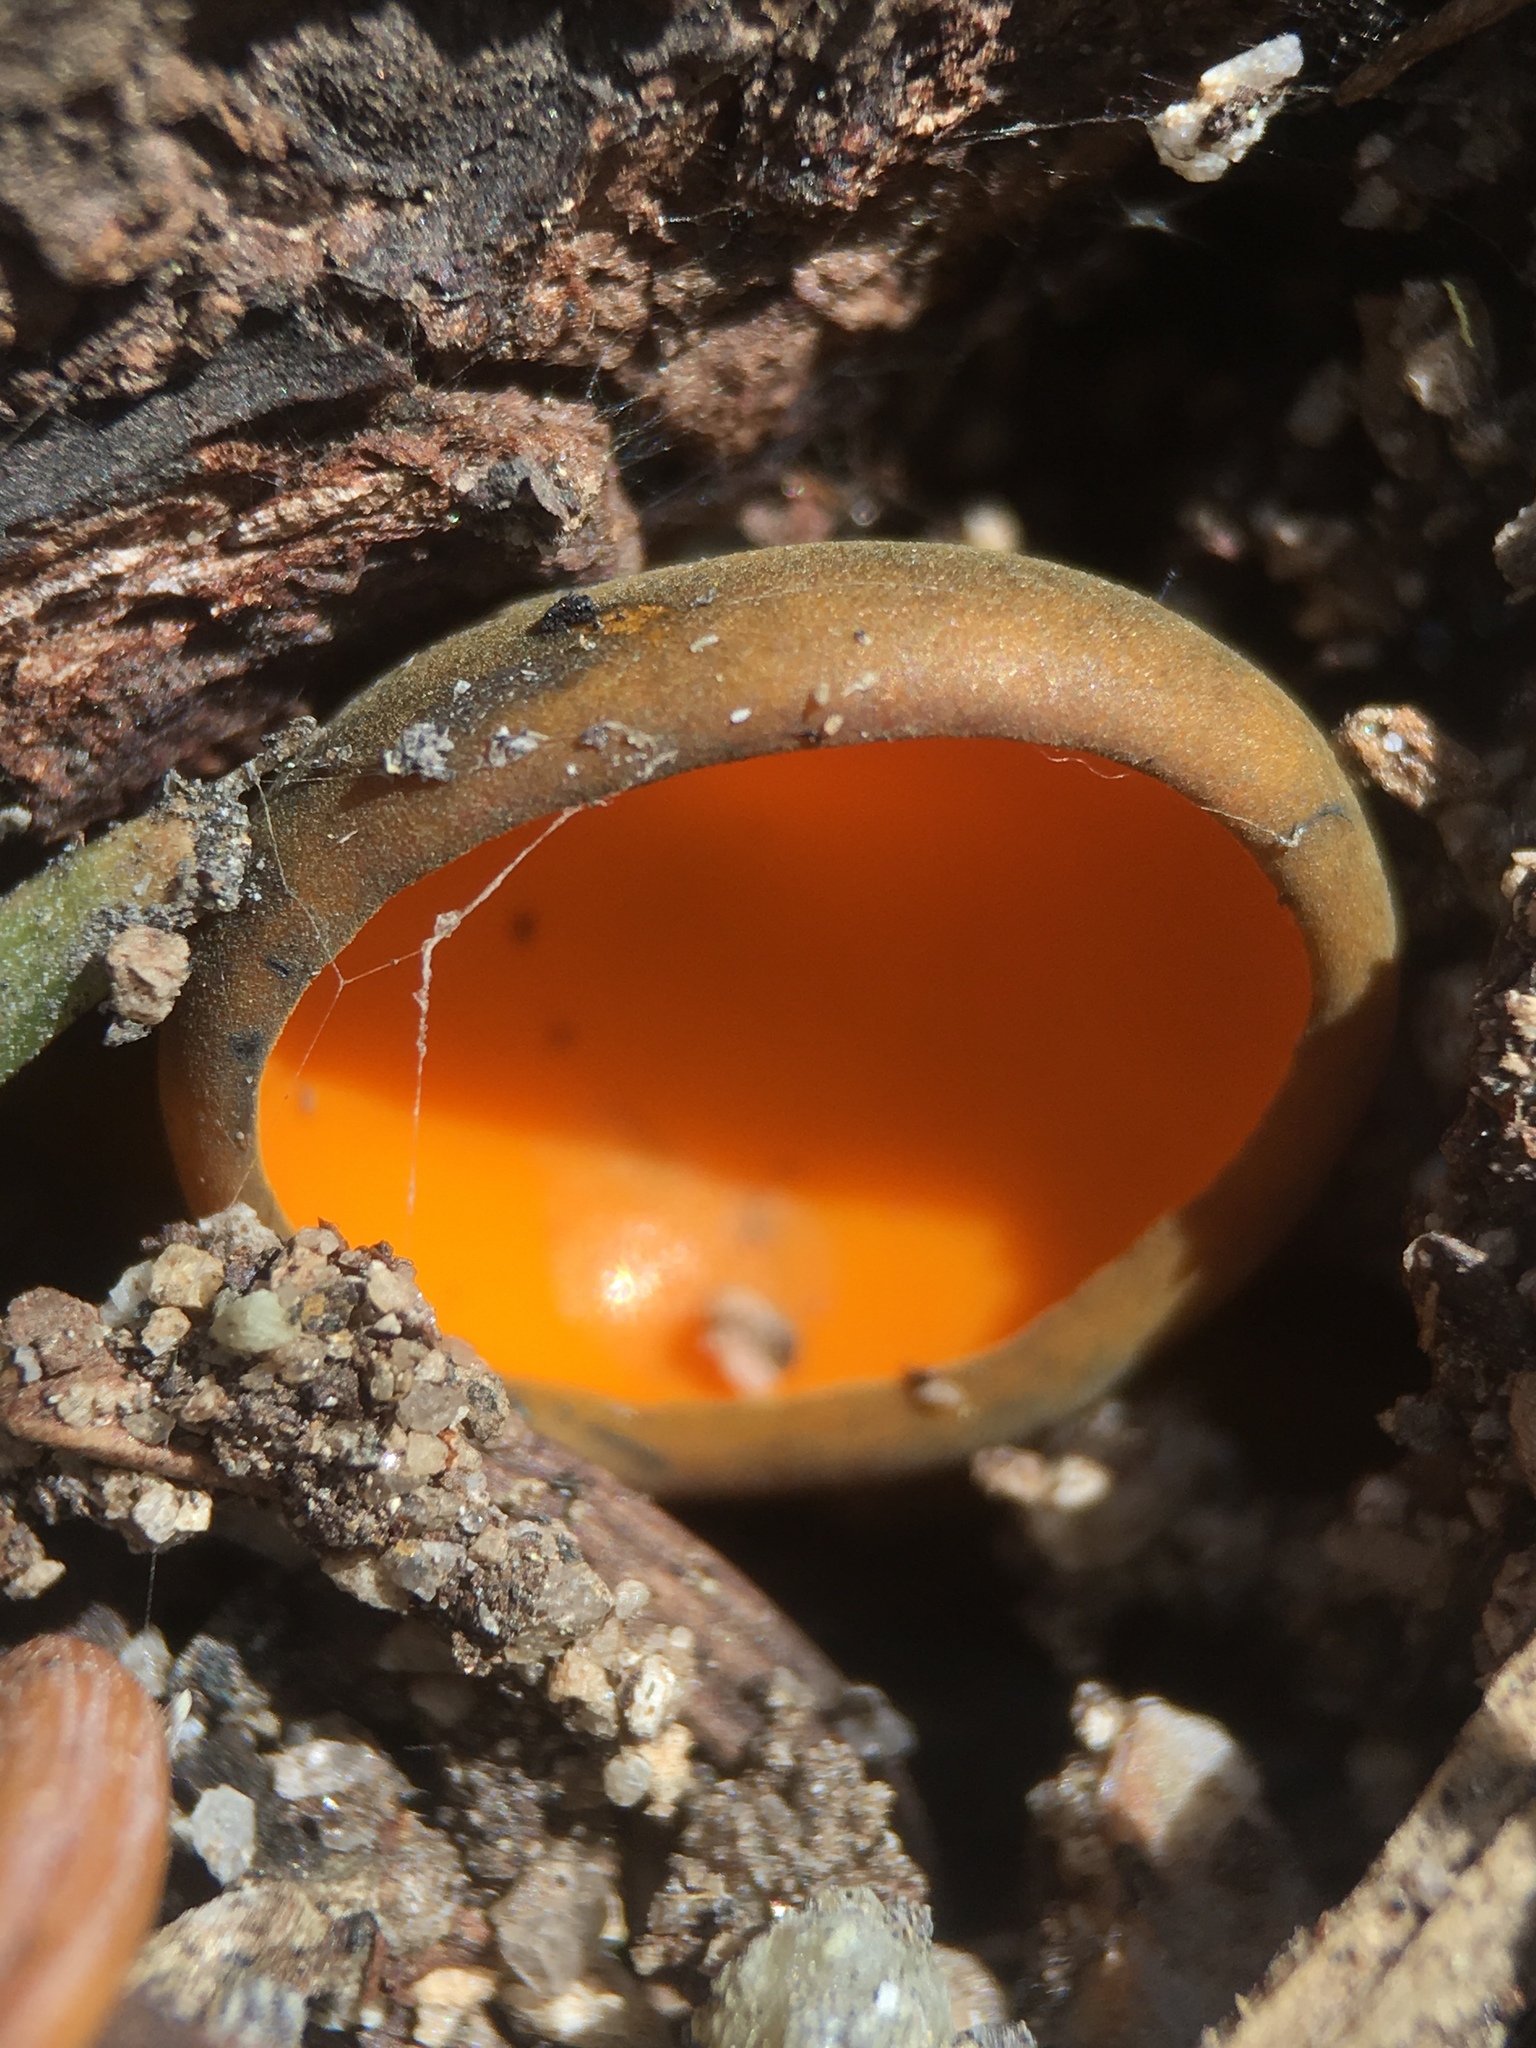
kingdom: Fungi
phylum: Ascomycota
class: Pezizomycetes
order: Pezizales
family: Caloscyphaceae
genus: Caloscypha
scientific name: Caloscypha fulgens
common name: Golden cup
